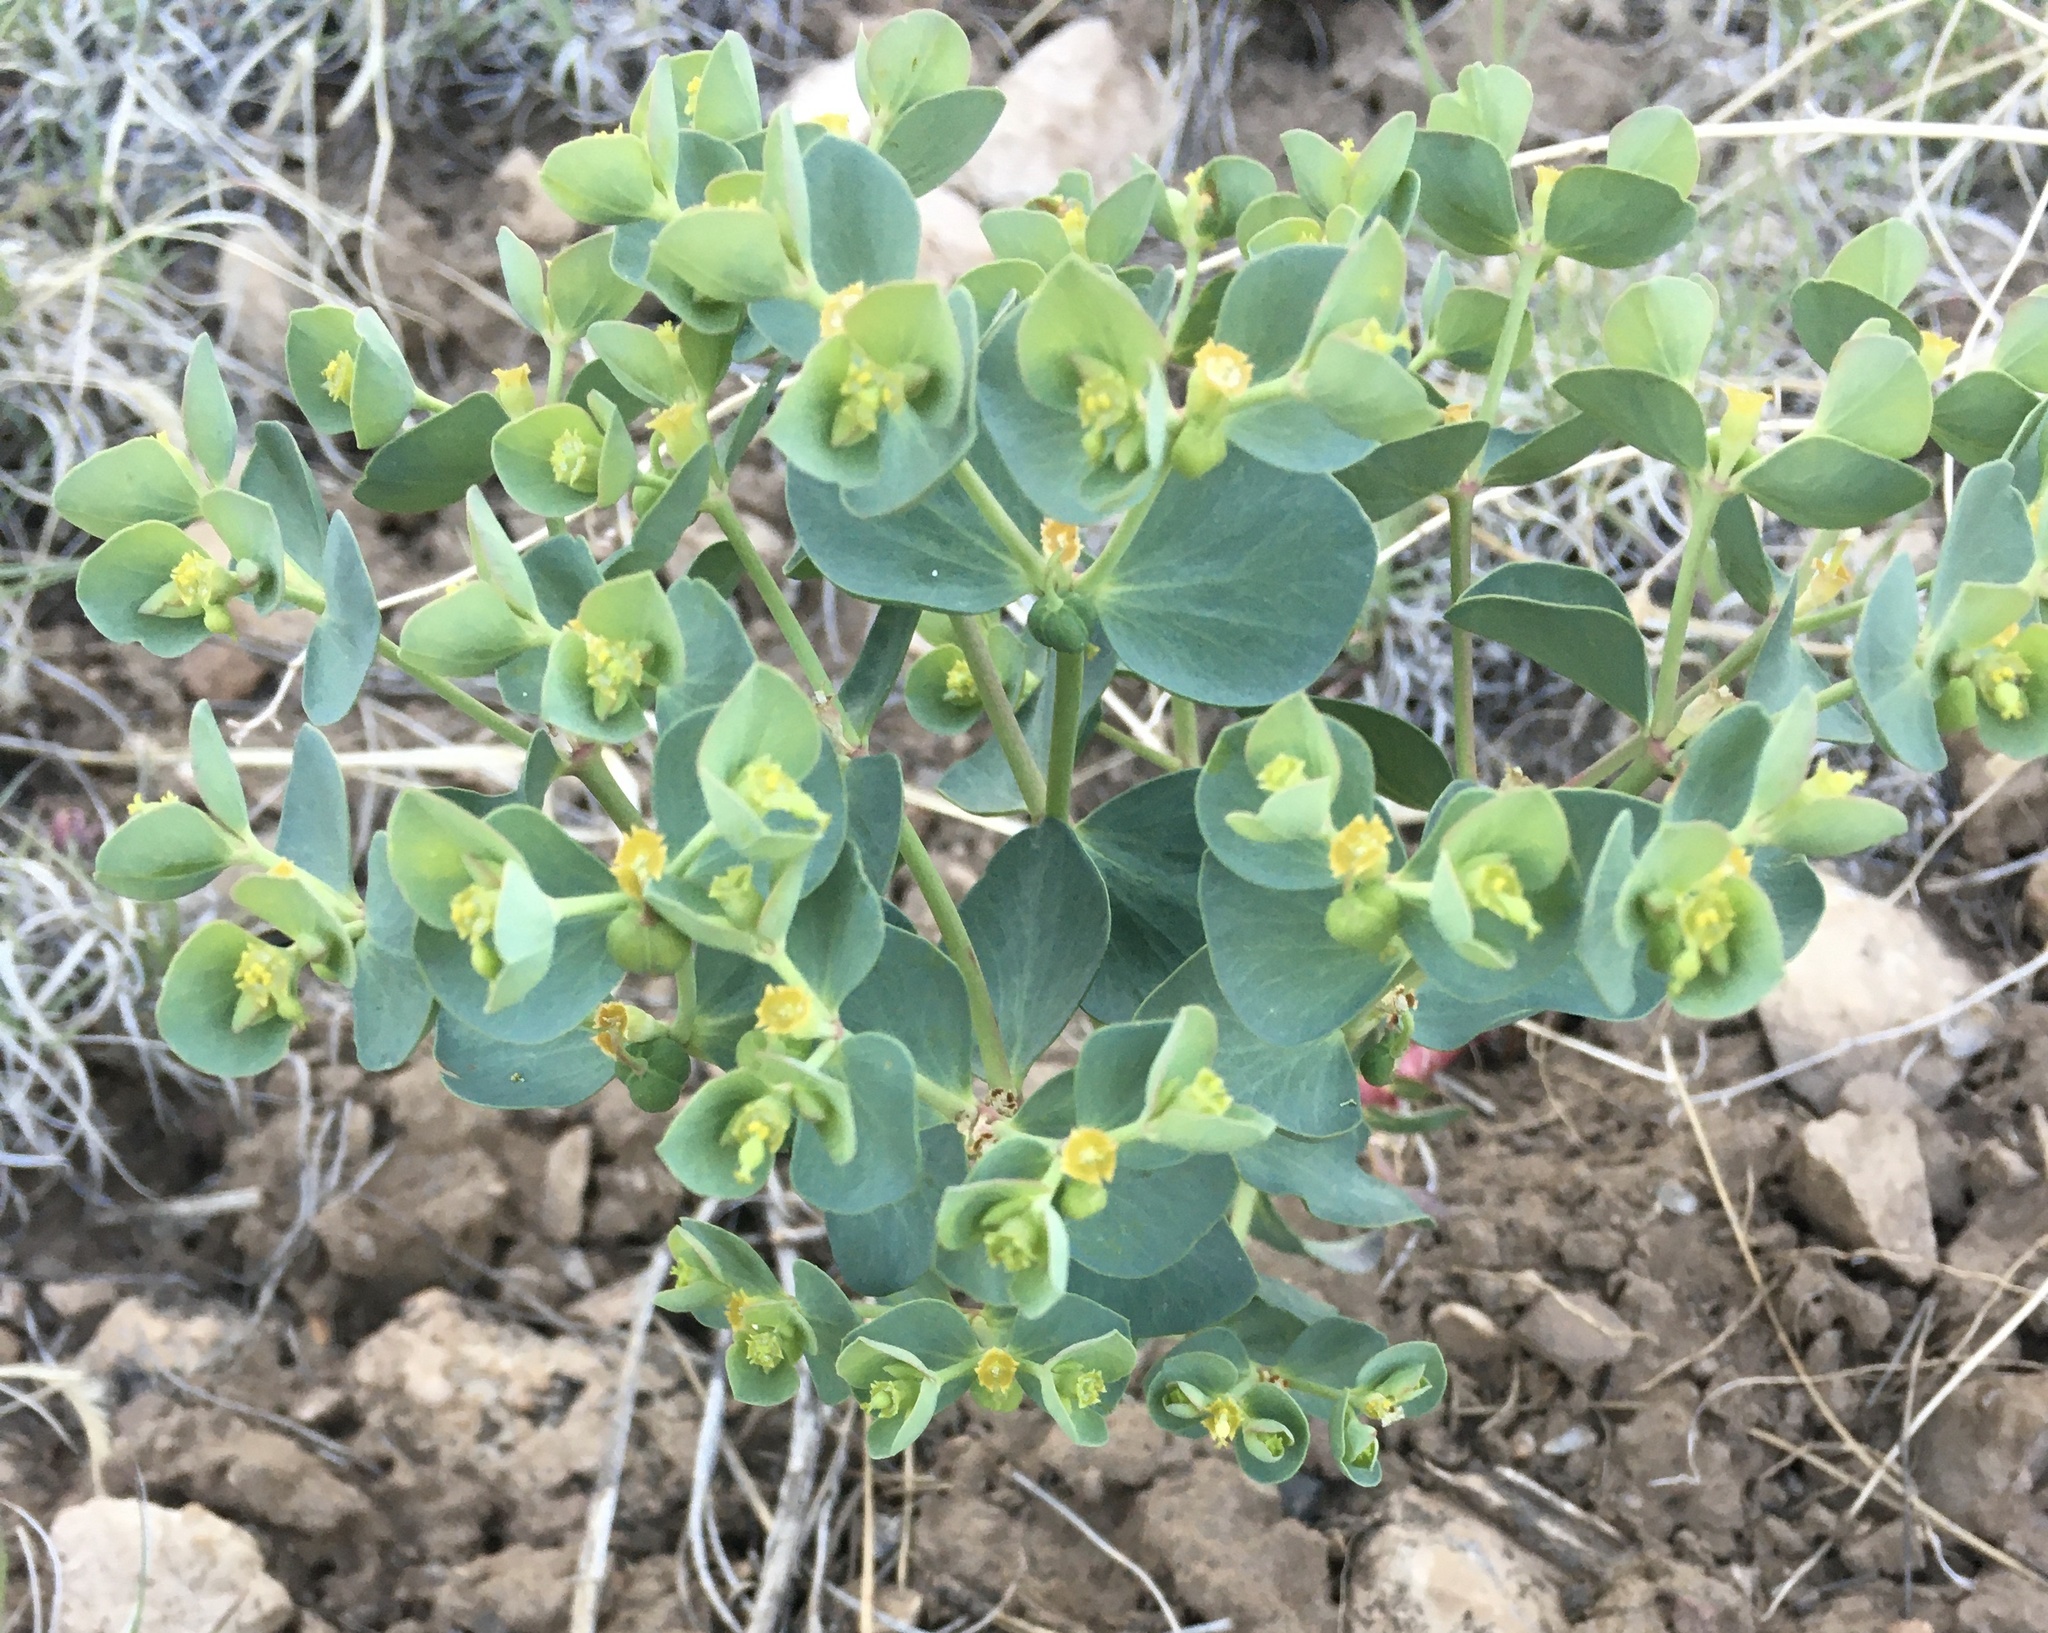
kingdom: Plantae
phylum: Tracheophyta
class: Magnoliopsida
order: Malpighiales
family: Euphorbiaceae
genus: Euphorbia
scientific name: Euphorbia lurida
